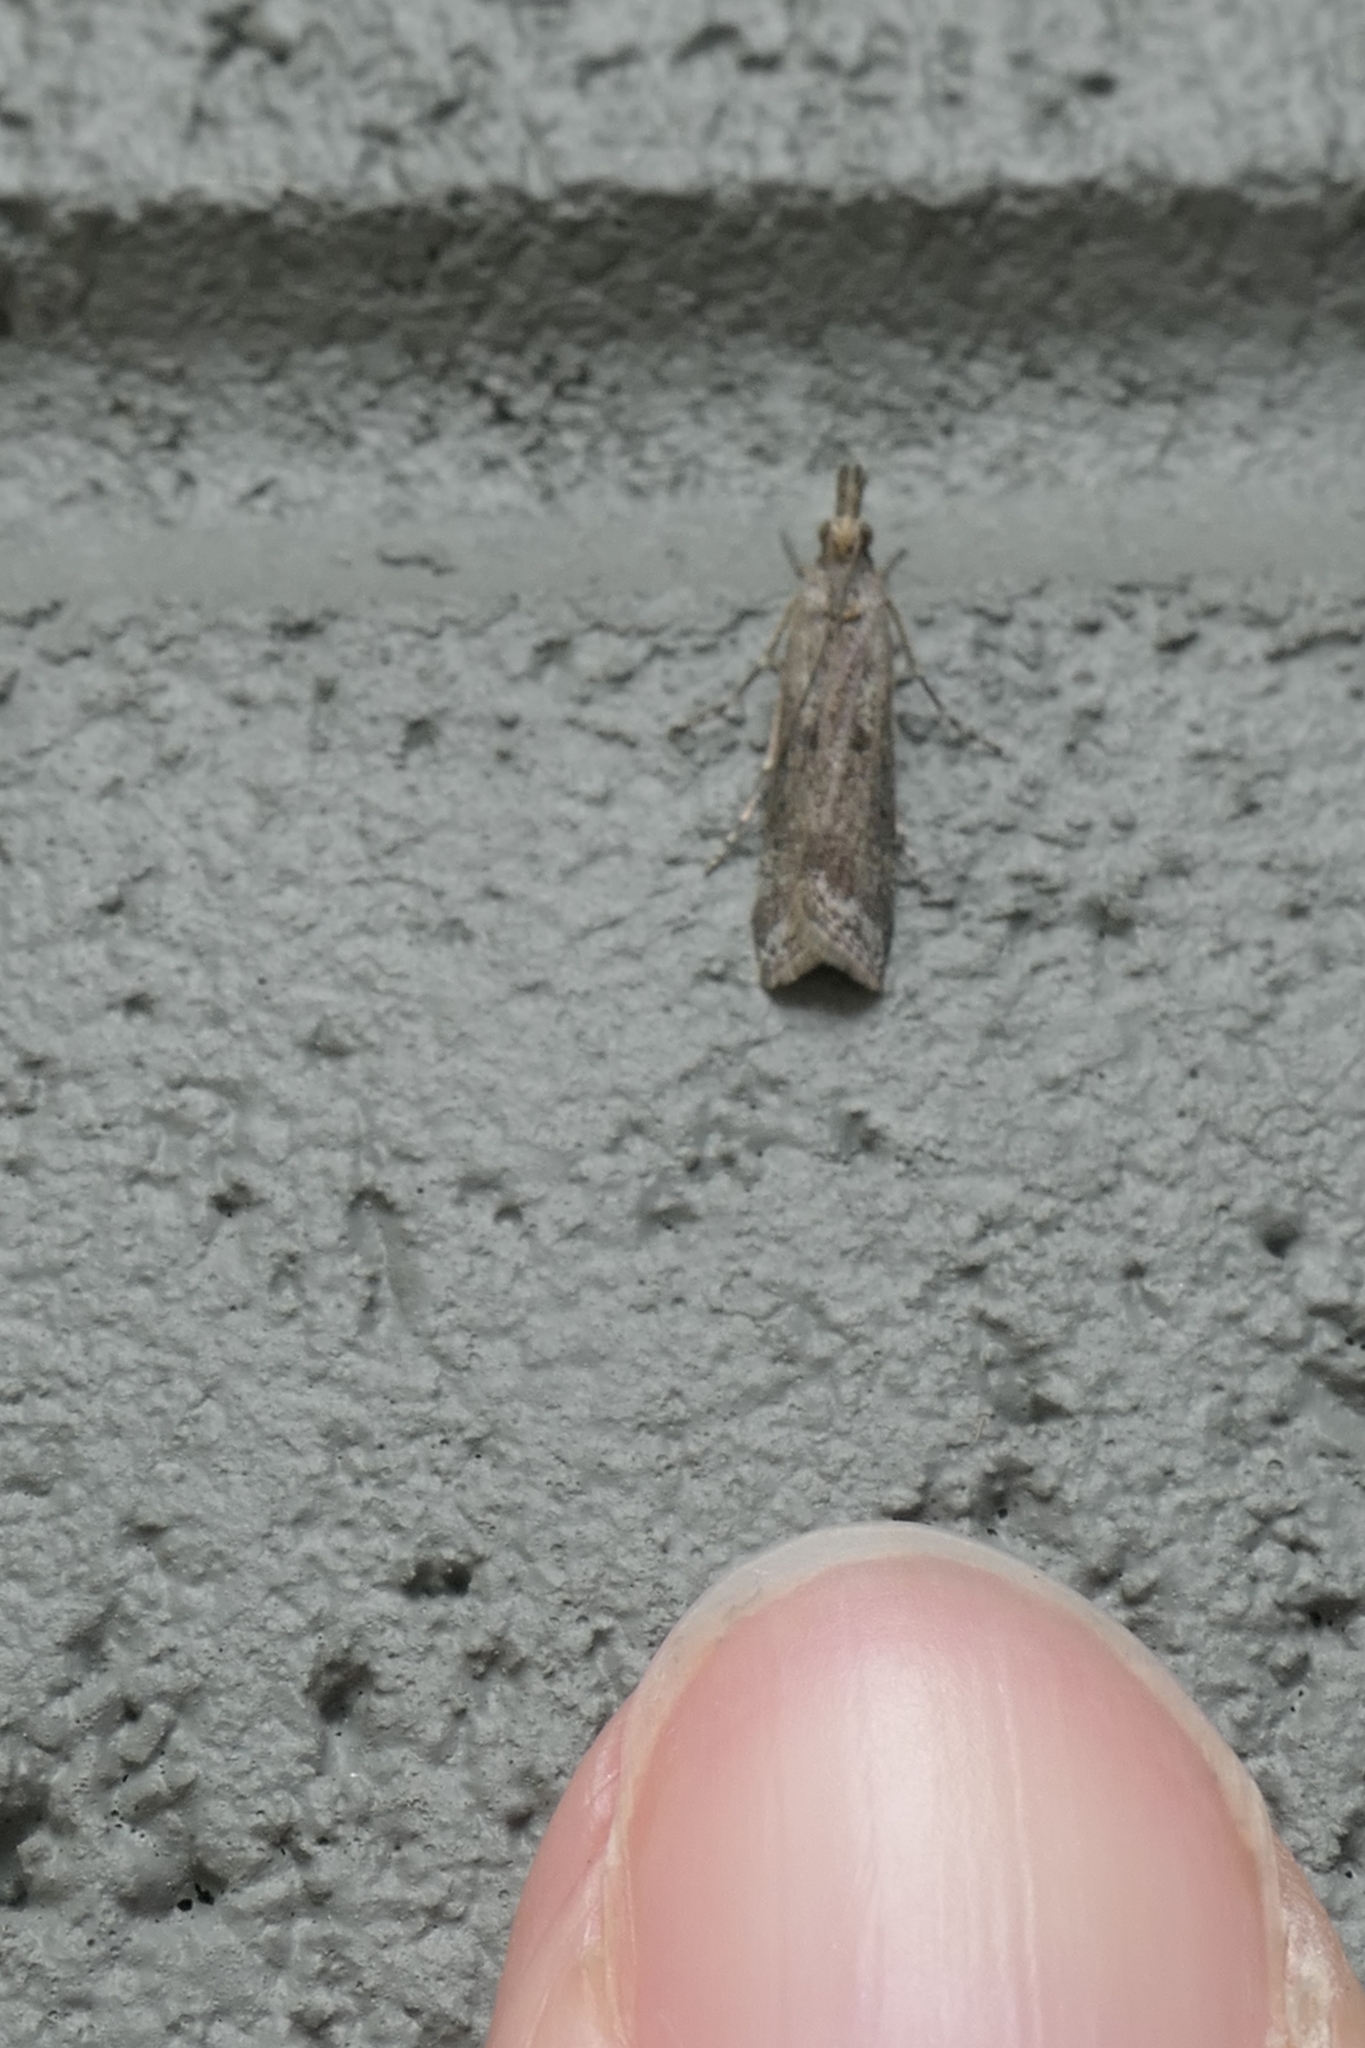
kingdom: Animalia
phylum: Arthropoda
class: Insecta
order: Lepidoptera
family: Crambidae
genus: Eudonia
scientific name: Eudonia leptalea
